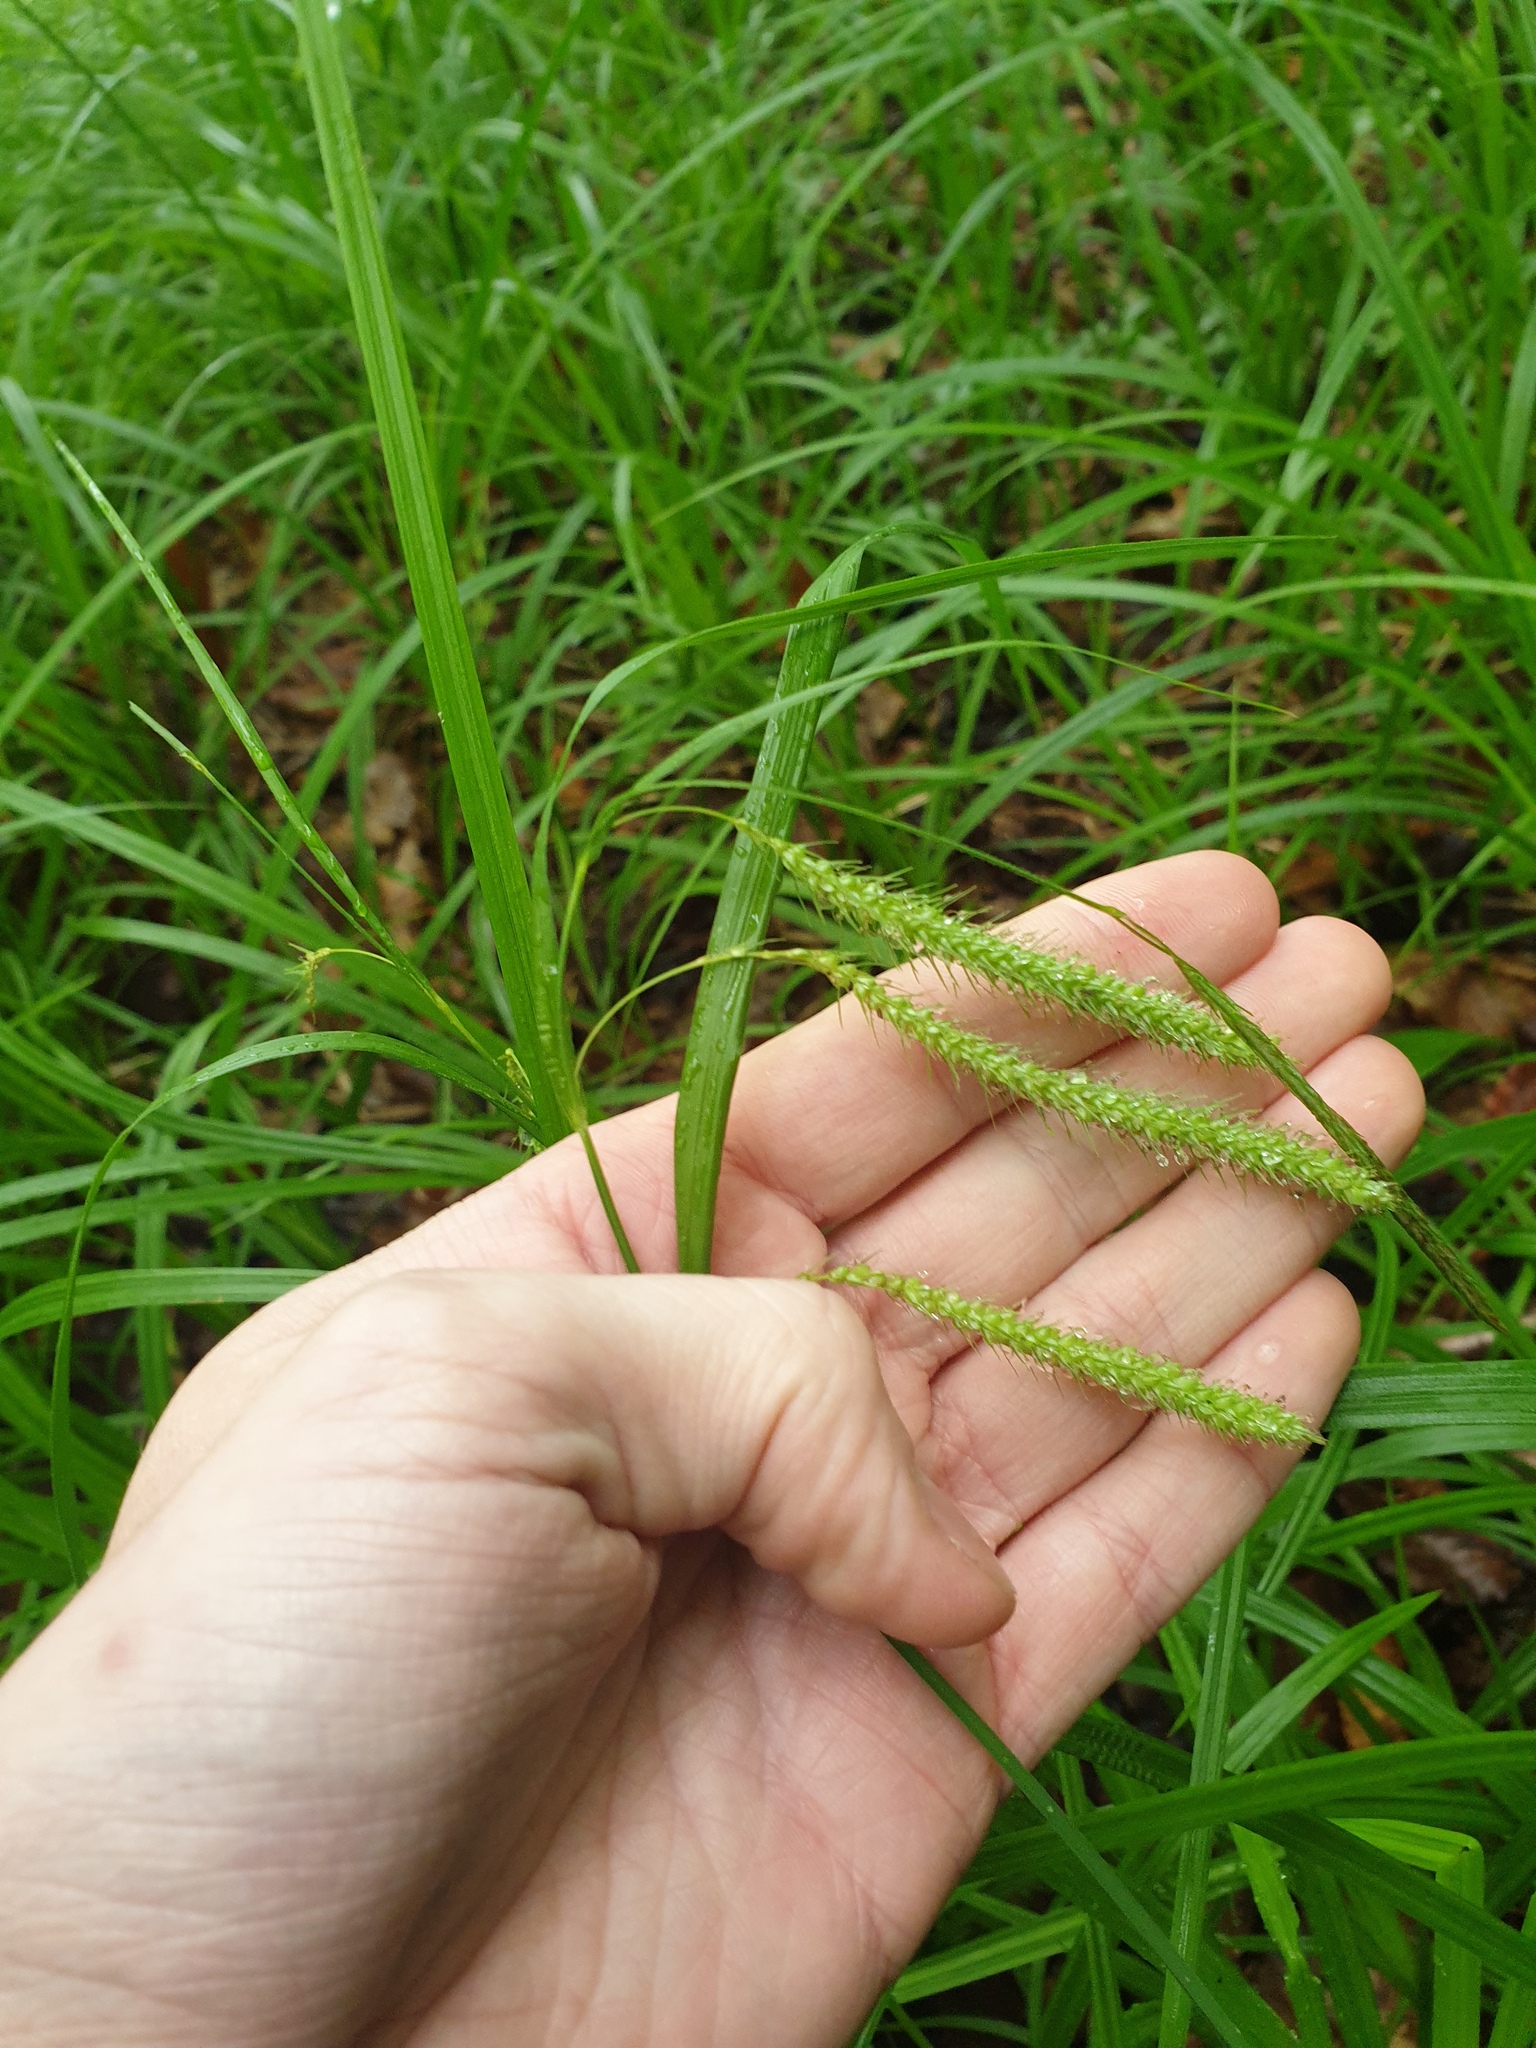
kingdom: Plantae
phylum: Tracheophyta
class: Liliopsida
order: Poales
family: Cyperaceae
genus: Carex
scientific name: Carex crinita
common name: Fringed sedge
